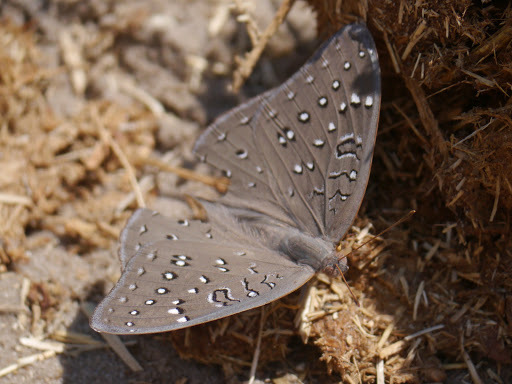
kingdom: Animalia
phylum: Arthropoda
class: Insecta
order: Lepidoptera
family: Nymphalidae
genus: Hamanumida
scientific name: Hamanumida daedalus
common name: Guinea-fowl butterfly
